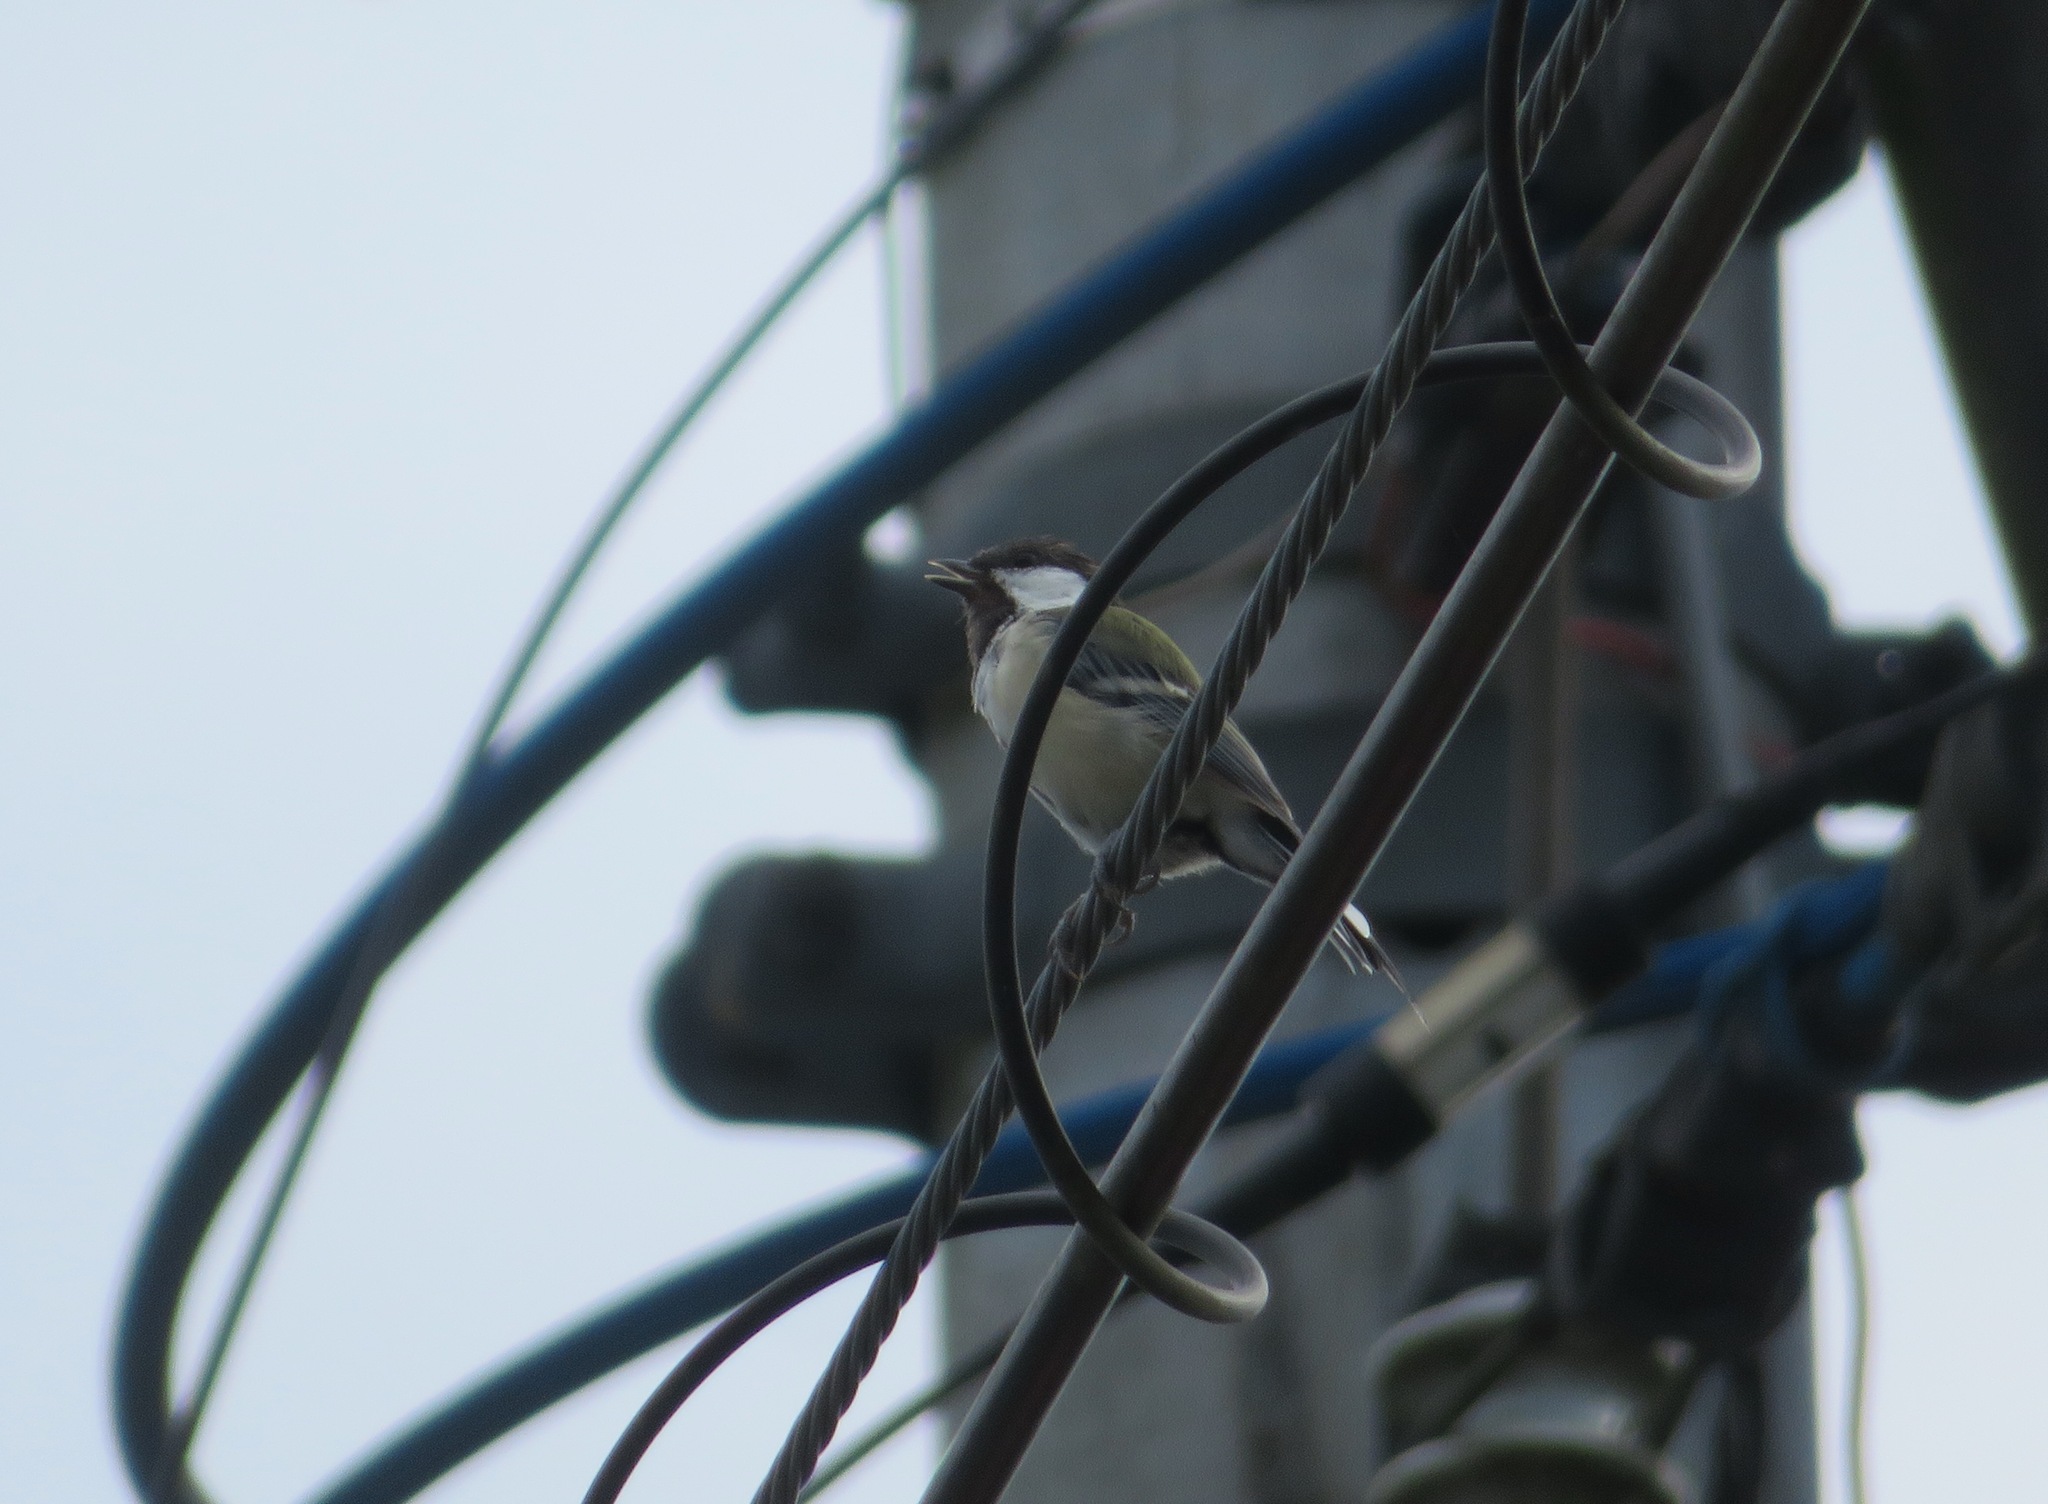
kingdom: Animalia
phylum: Chordata
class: Aves
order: Passeriformes
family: Paridae
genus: Parus
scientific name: Parus minor
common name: Japanese tit
